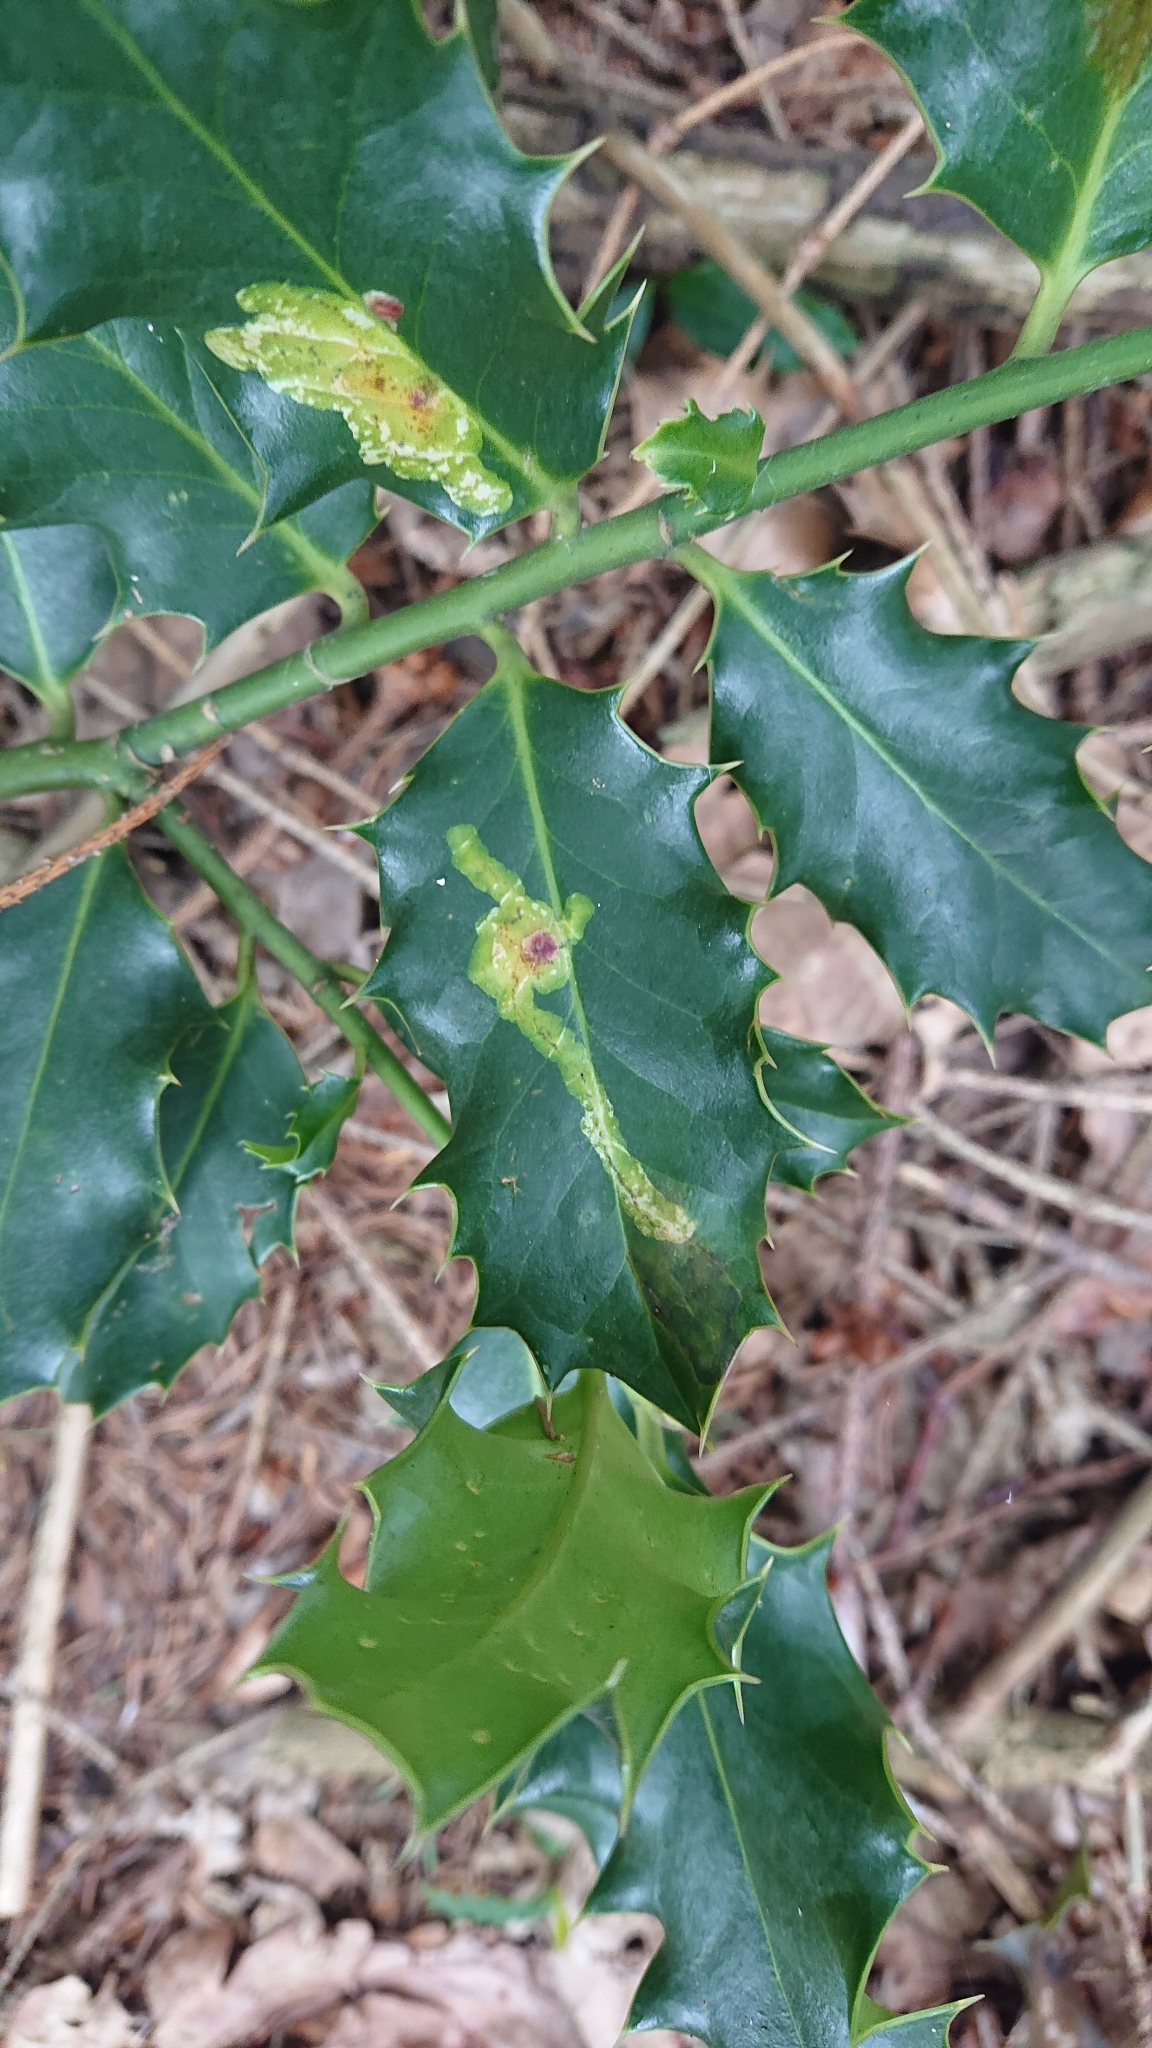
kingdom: Animalia
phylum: Arthropoda
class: Insecta
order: Diptera
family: Agromyzidae
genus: Phytomyza
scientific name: Phytomyza ilicis
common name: Holly leafminer
